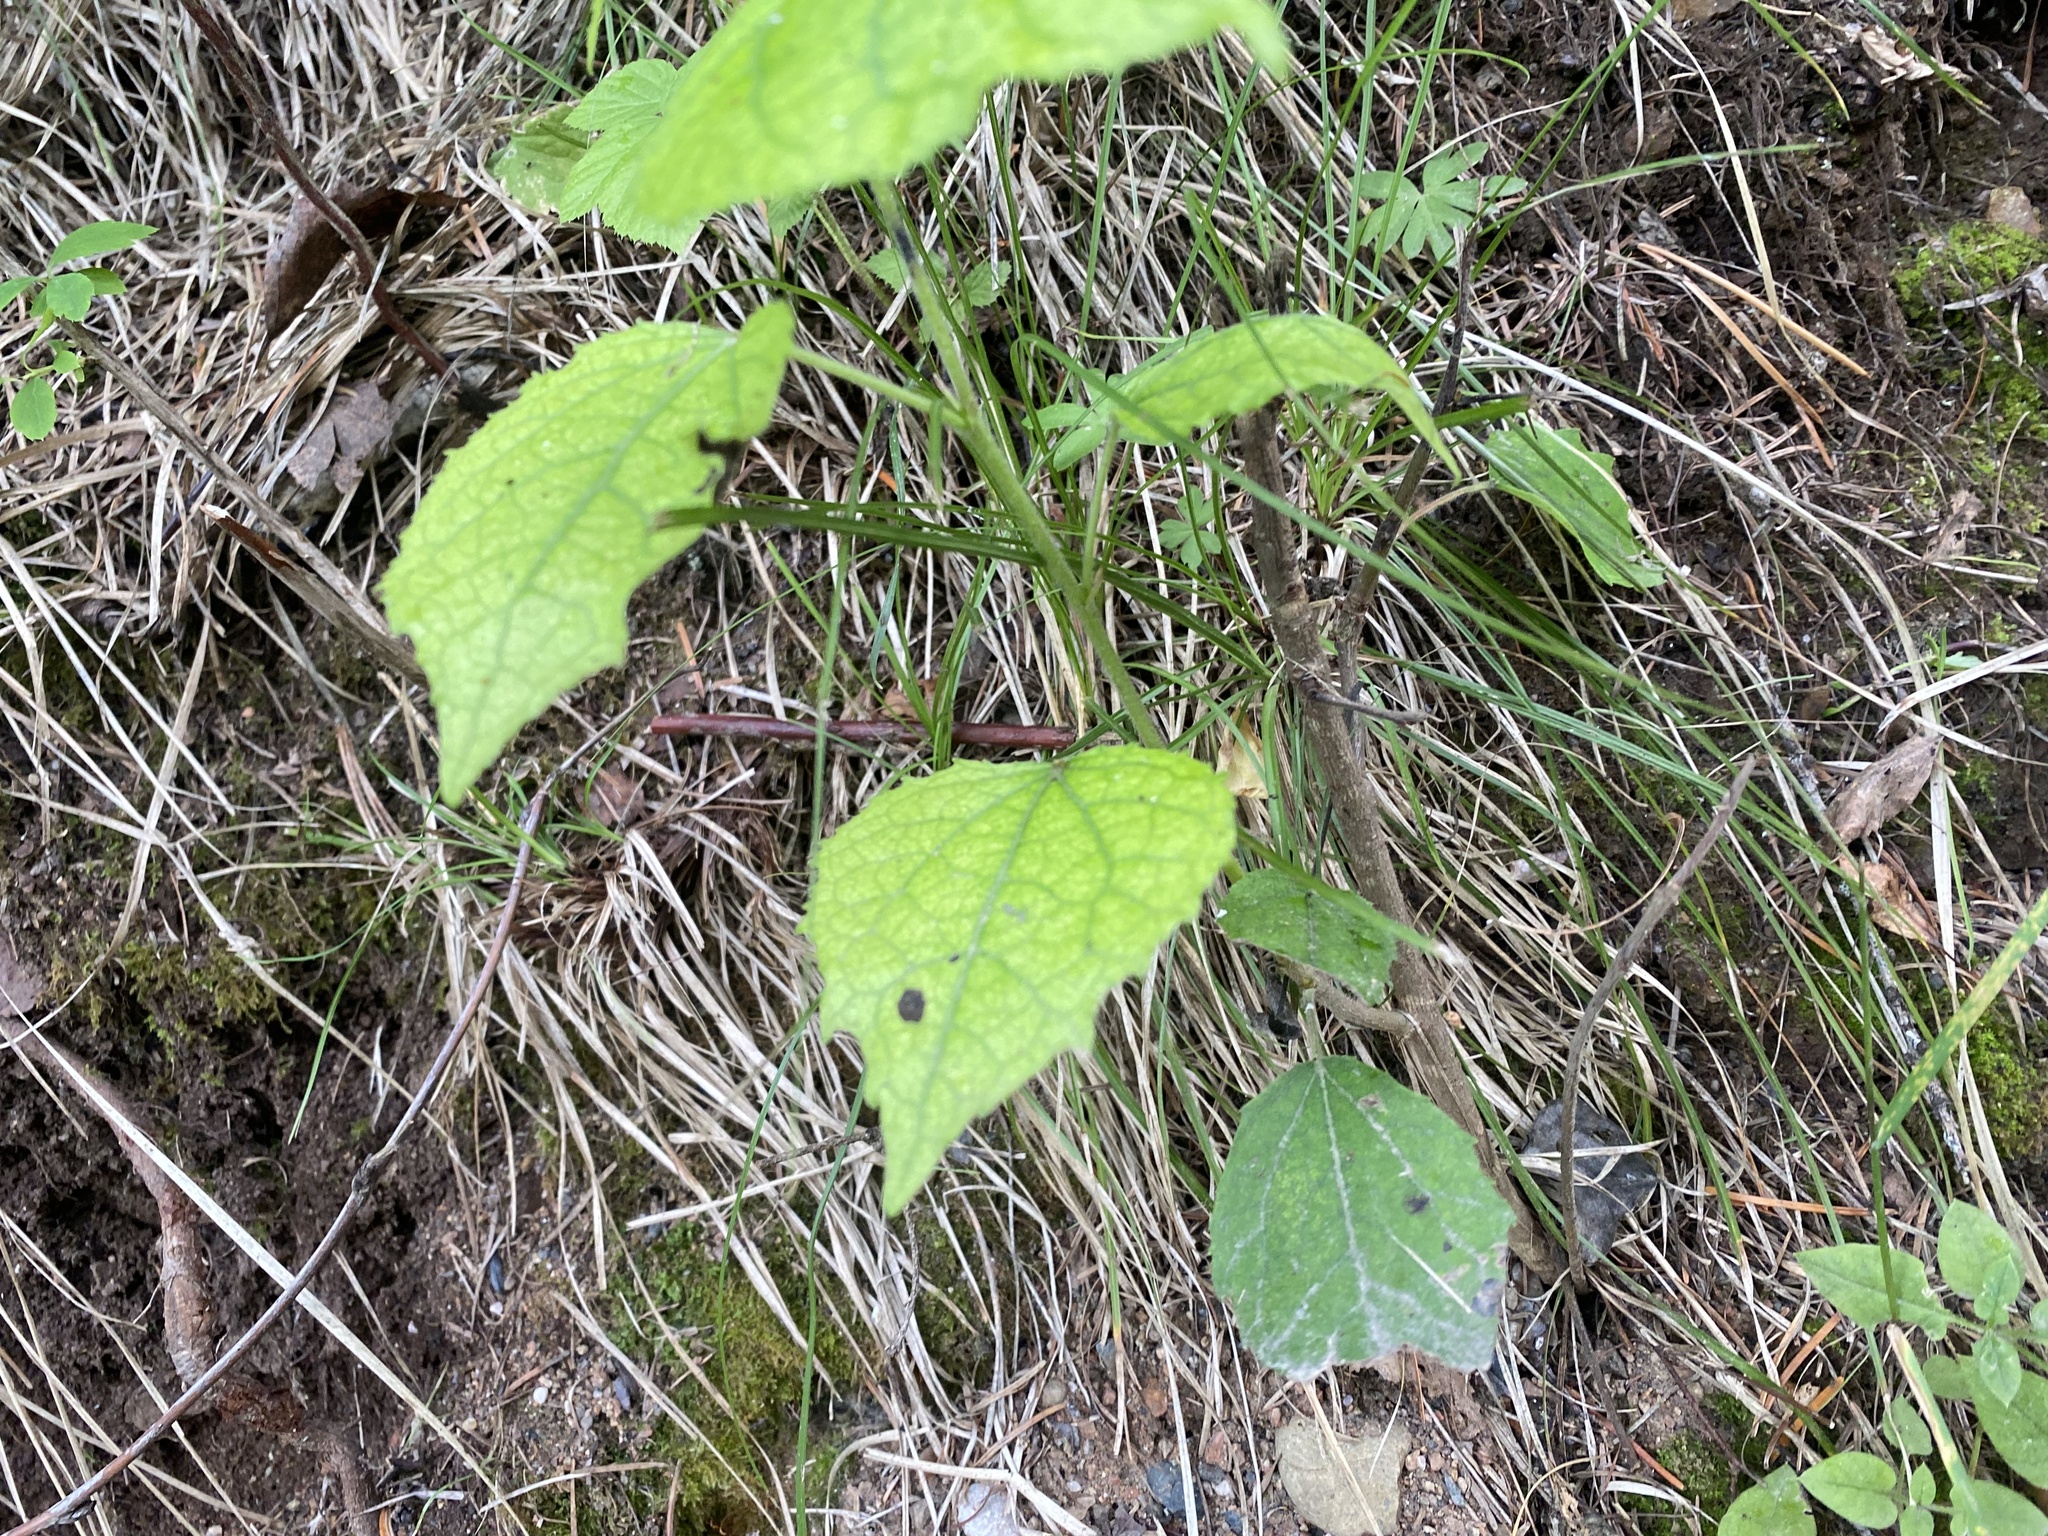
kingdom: Plantae
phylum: Tracheophyta
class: Magnoliopsida
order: Malpighiales
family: Salicaceae
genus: Populus
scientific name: Populus tremula
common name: European aspen
